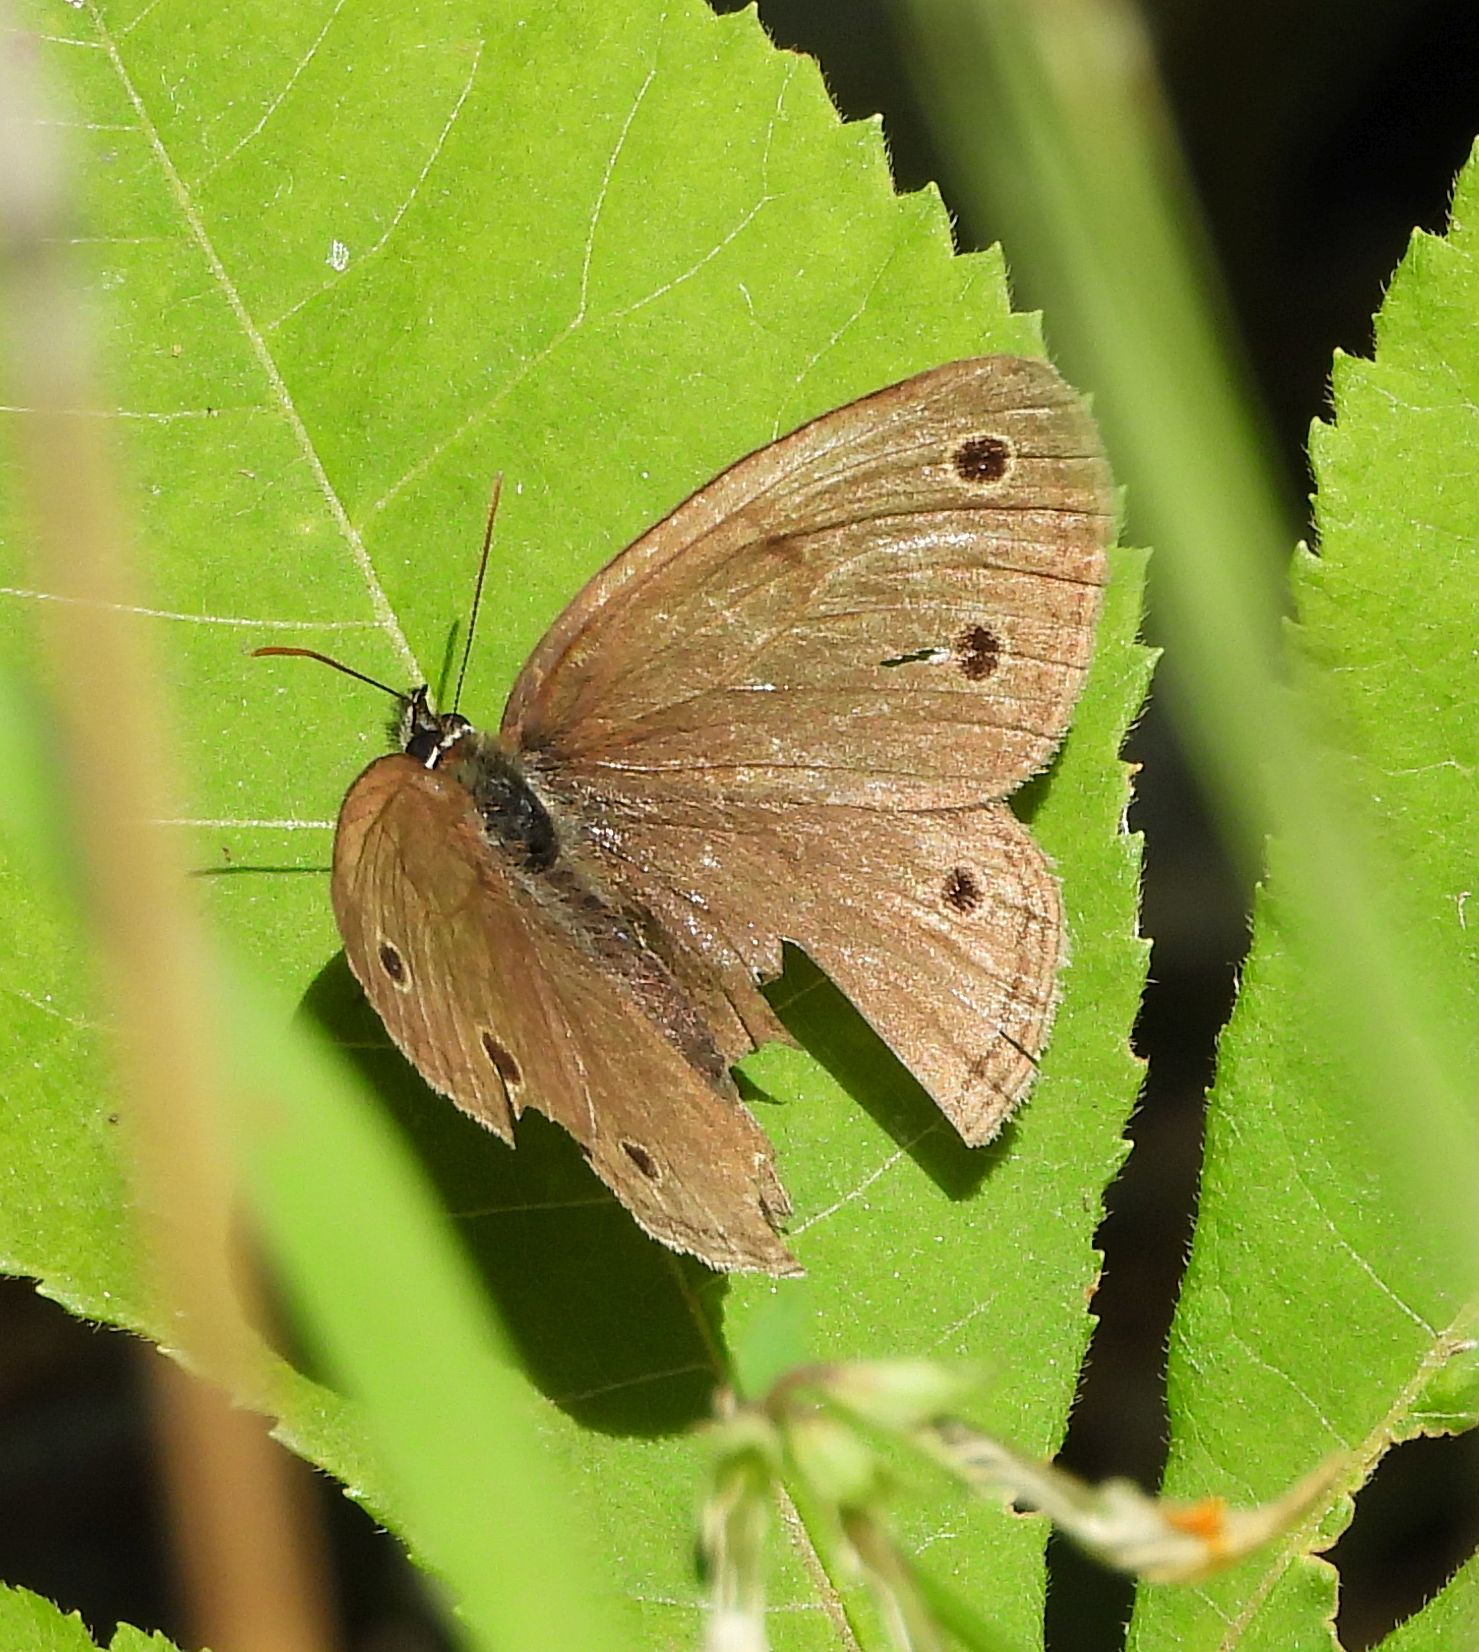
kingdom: Animalia
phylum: Arthropoda
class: Insecta
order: Lepidoptera
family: Nymphalidae
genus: Euptychia
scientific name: Euptychia cymela
